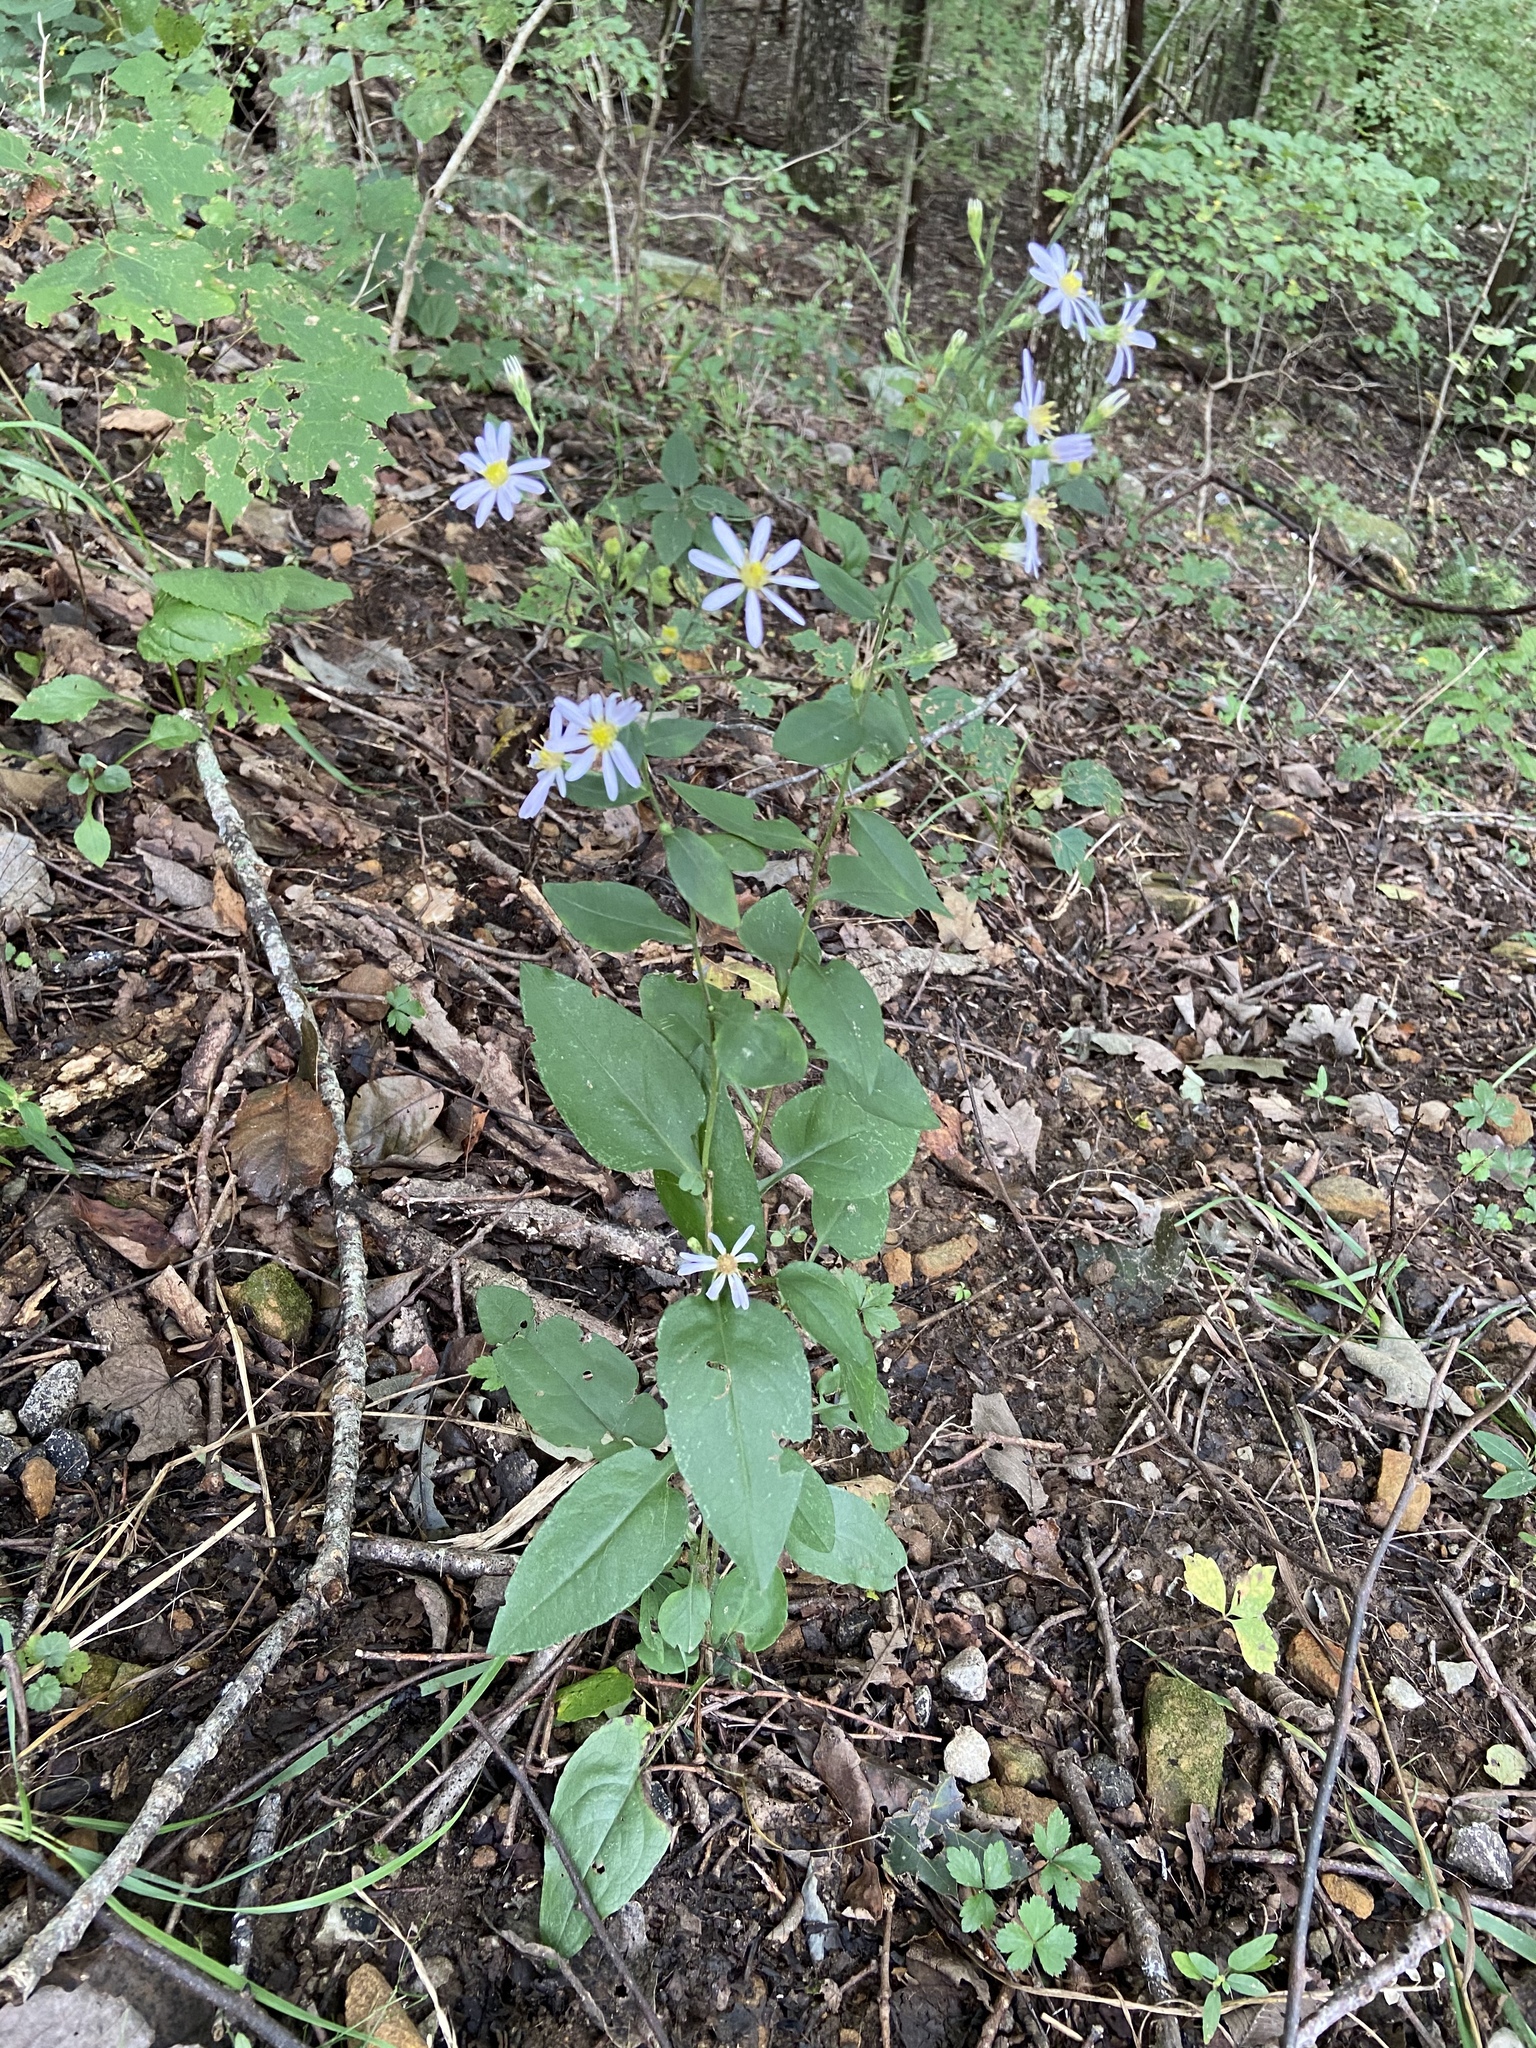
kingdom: Plantae
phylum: Tracheophyta
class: Magnoliopsida
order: Asterales
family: Asteraceae
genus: Symphyotrichum
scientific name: Symphyotrichum undulatum
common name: Clasping heart-leaf aster
